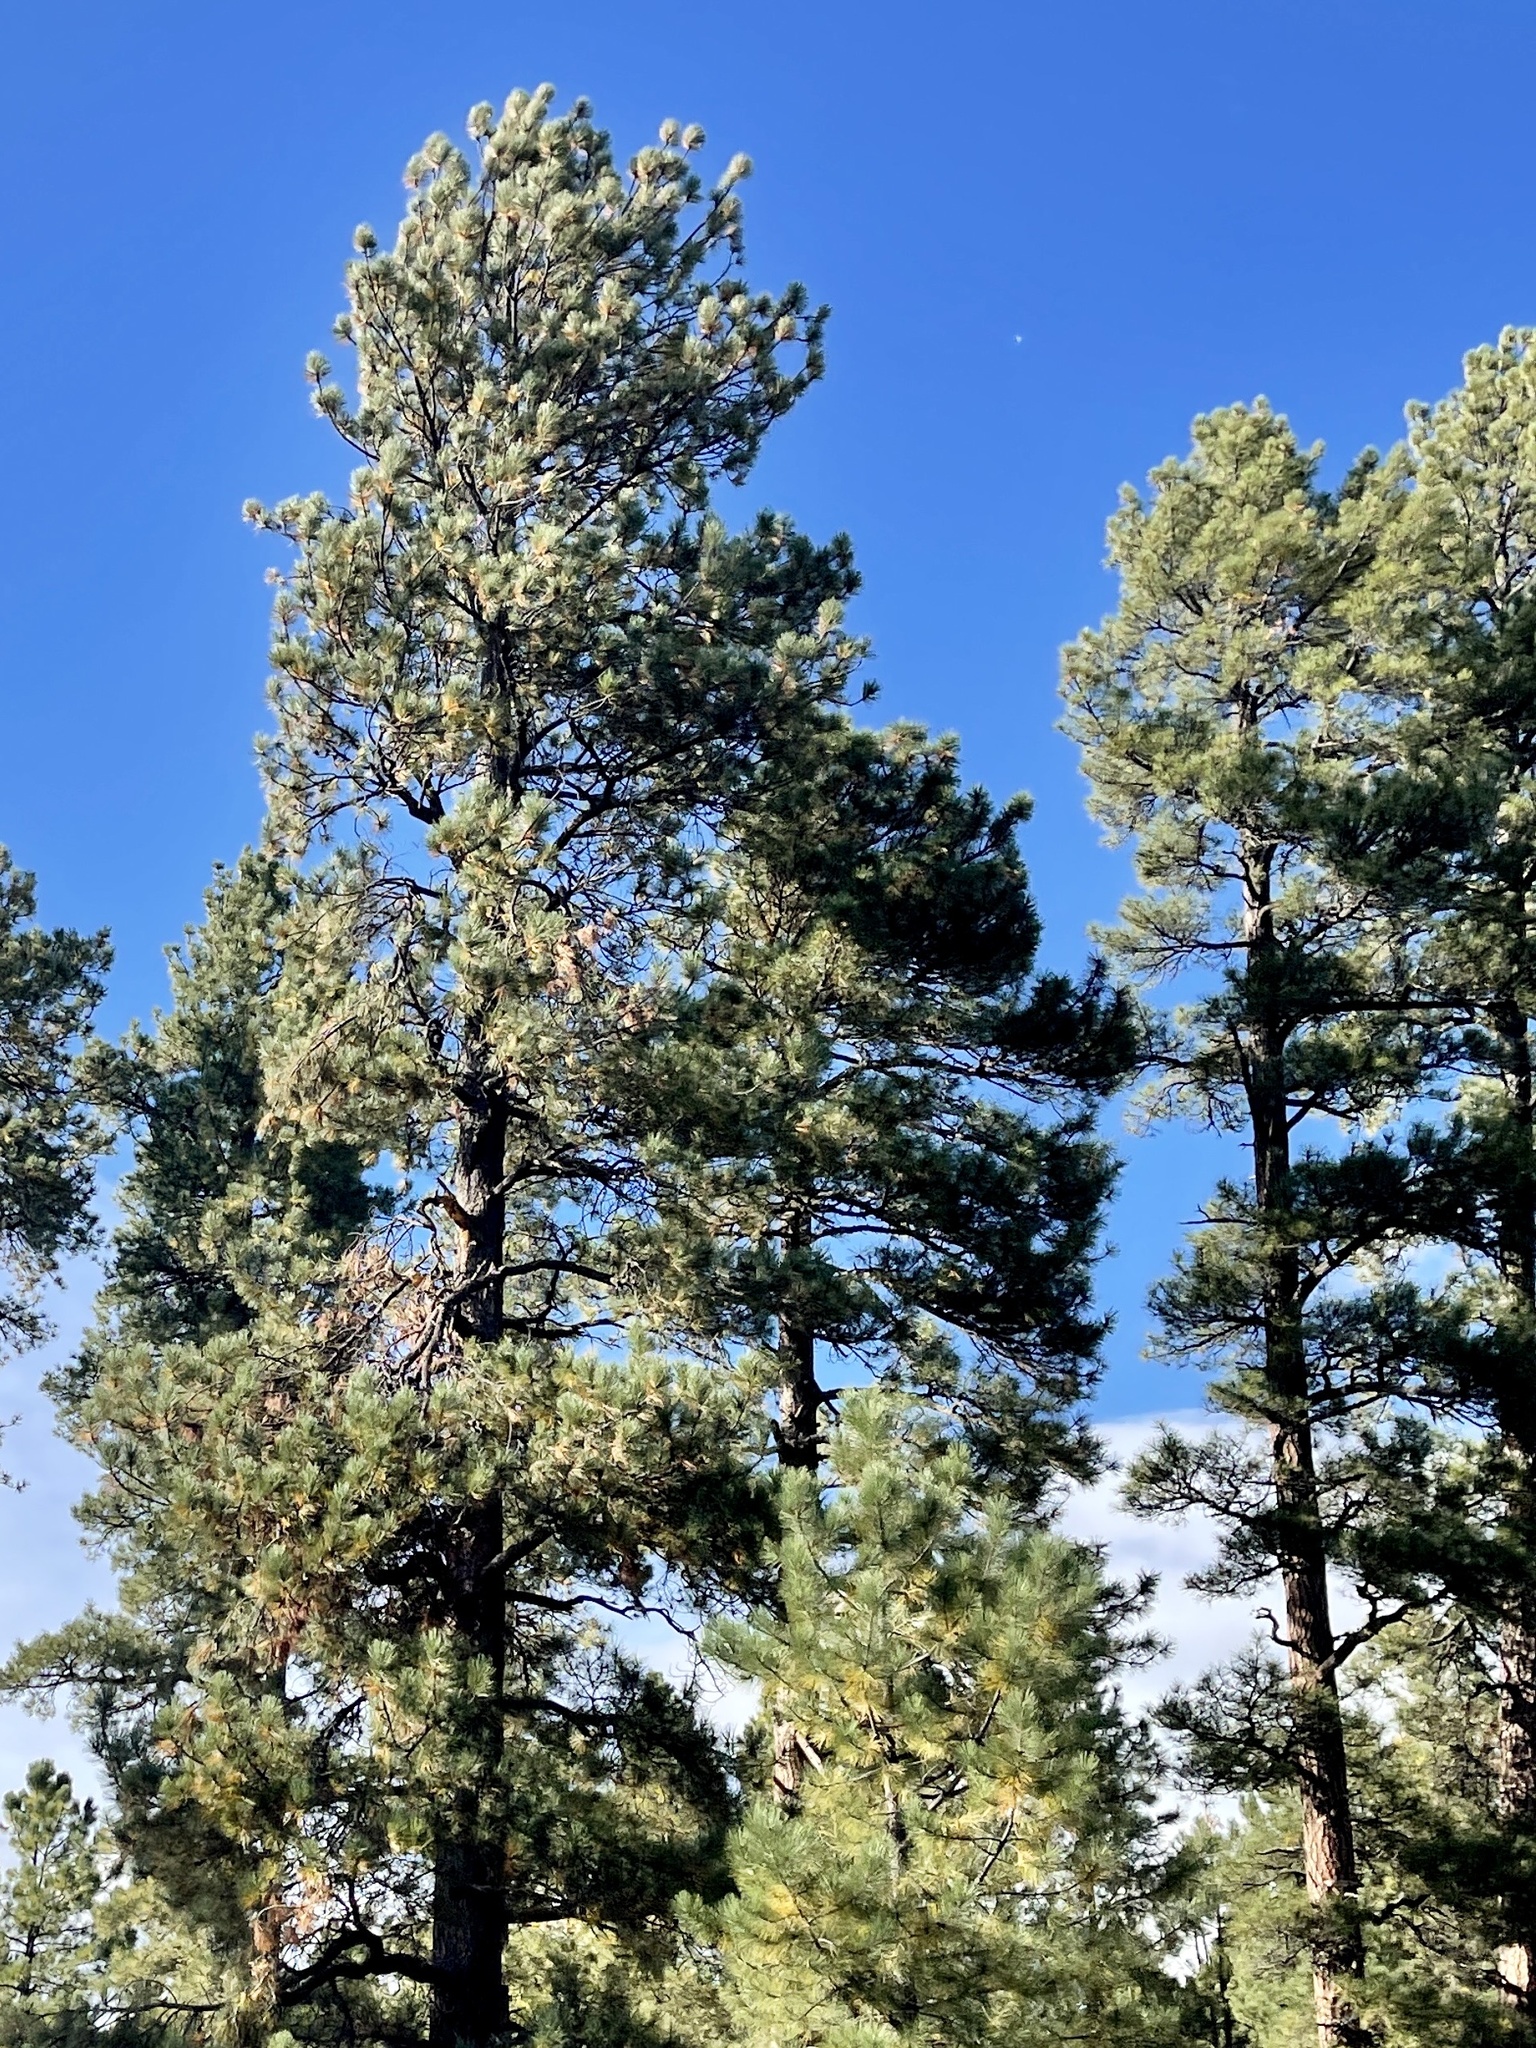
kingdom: Plantae
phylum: Tracheophyta
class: Pinopsida
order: Pinales
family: Pinaceae
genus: Pinus
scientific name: Pinus ponderosa
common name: Western yellow-pine
